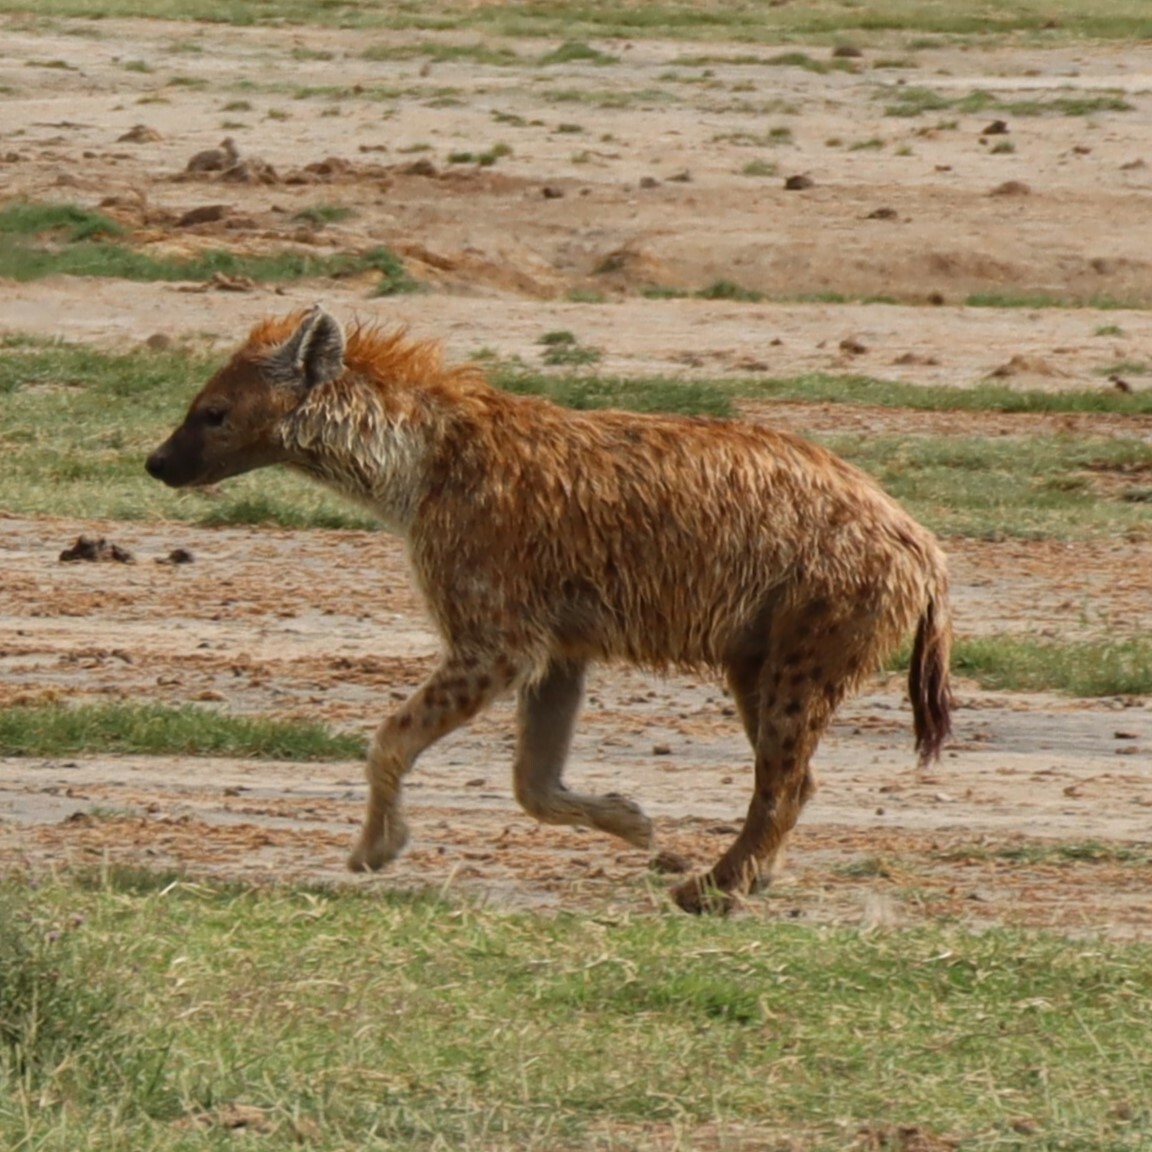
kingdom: Animalia
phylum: Chordata
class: Mammalia
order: Carnivora
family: Hyaenidae
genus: Crocuta
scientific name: Crocuta crocuta
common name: Spotted hyaena
